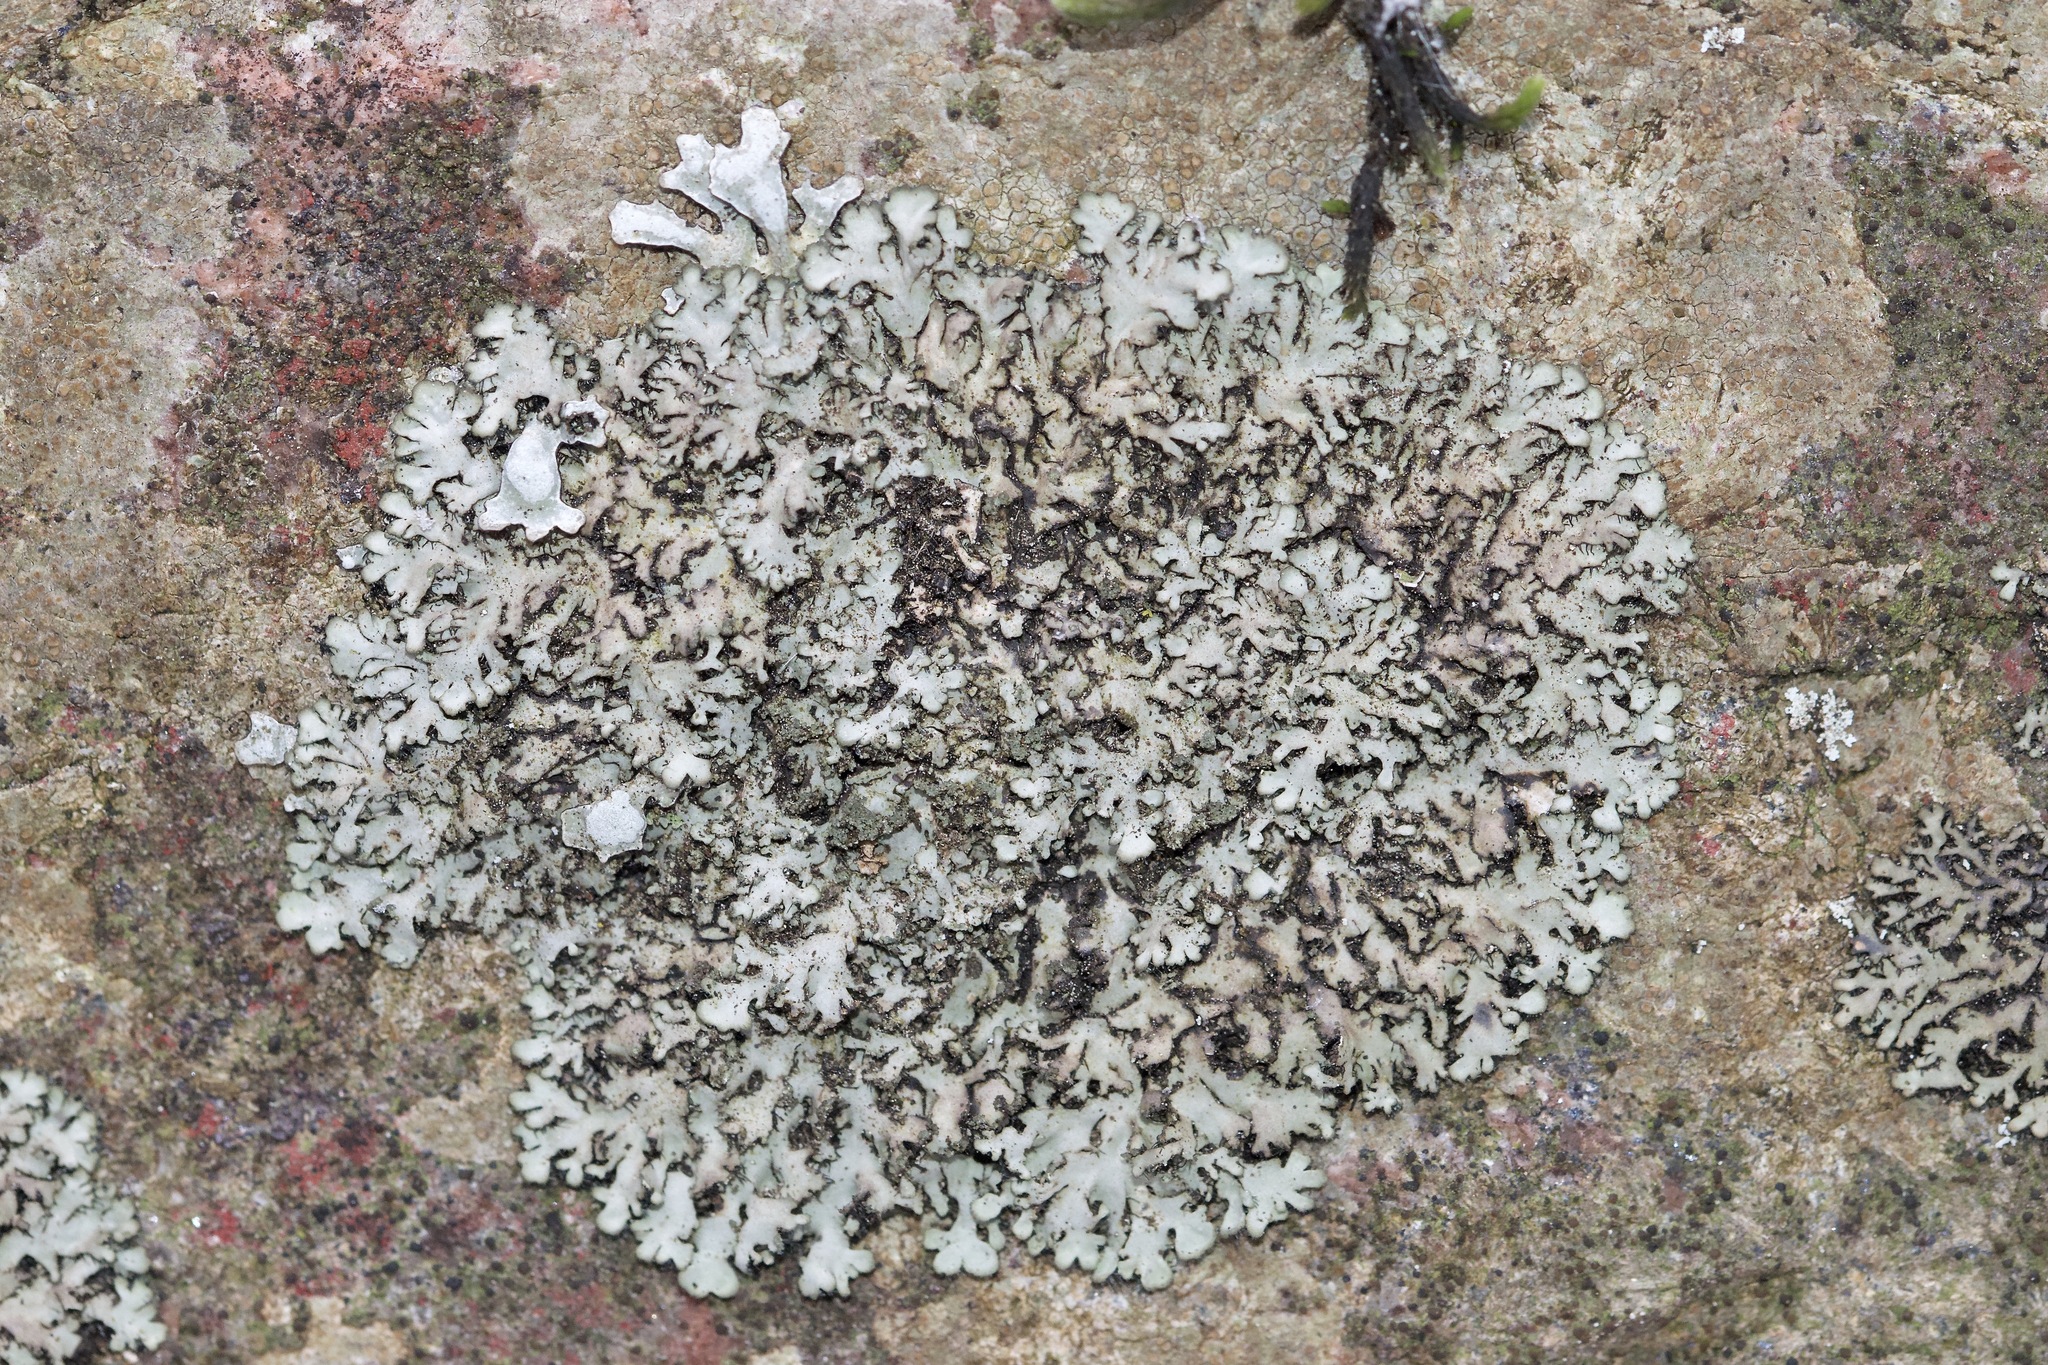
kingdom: Fungi
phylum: Ascomycota
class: Lecanoromycetes
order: Caliciales
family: Physciaceae
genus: Phaeophyscia
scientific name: Phaeophyscia orbicularis
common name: Mealy shadow lichen
